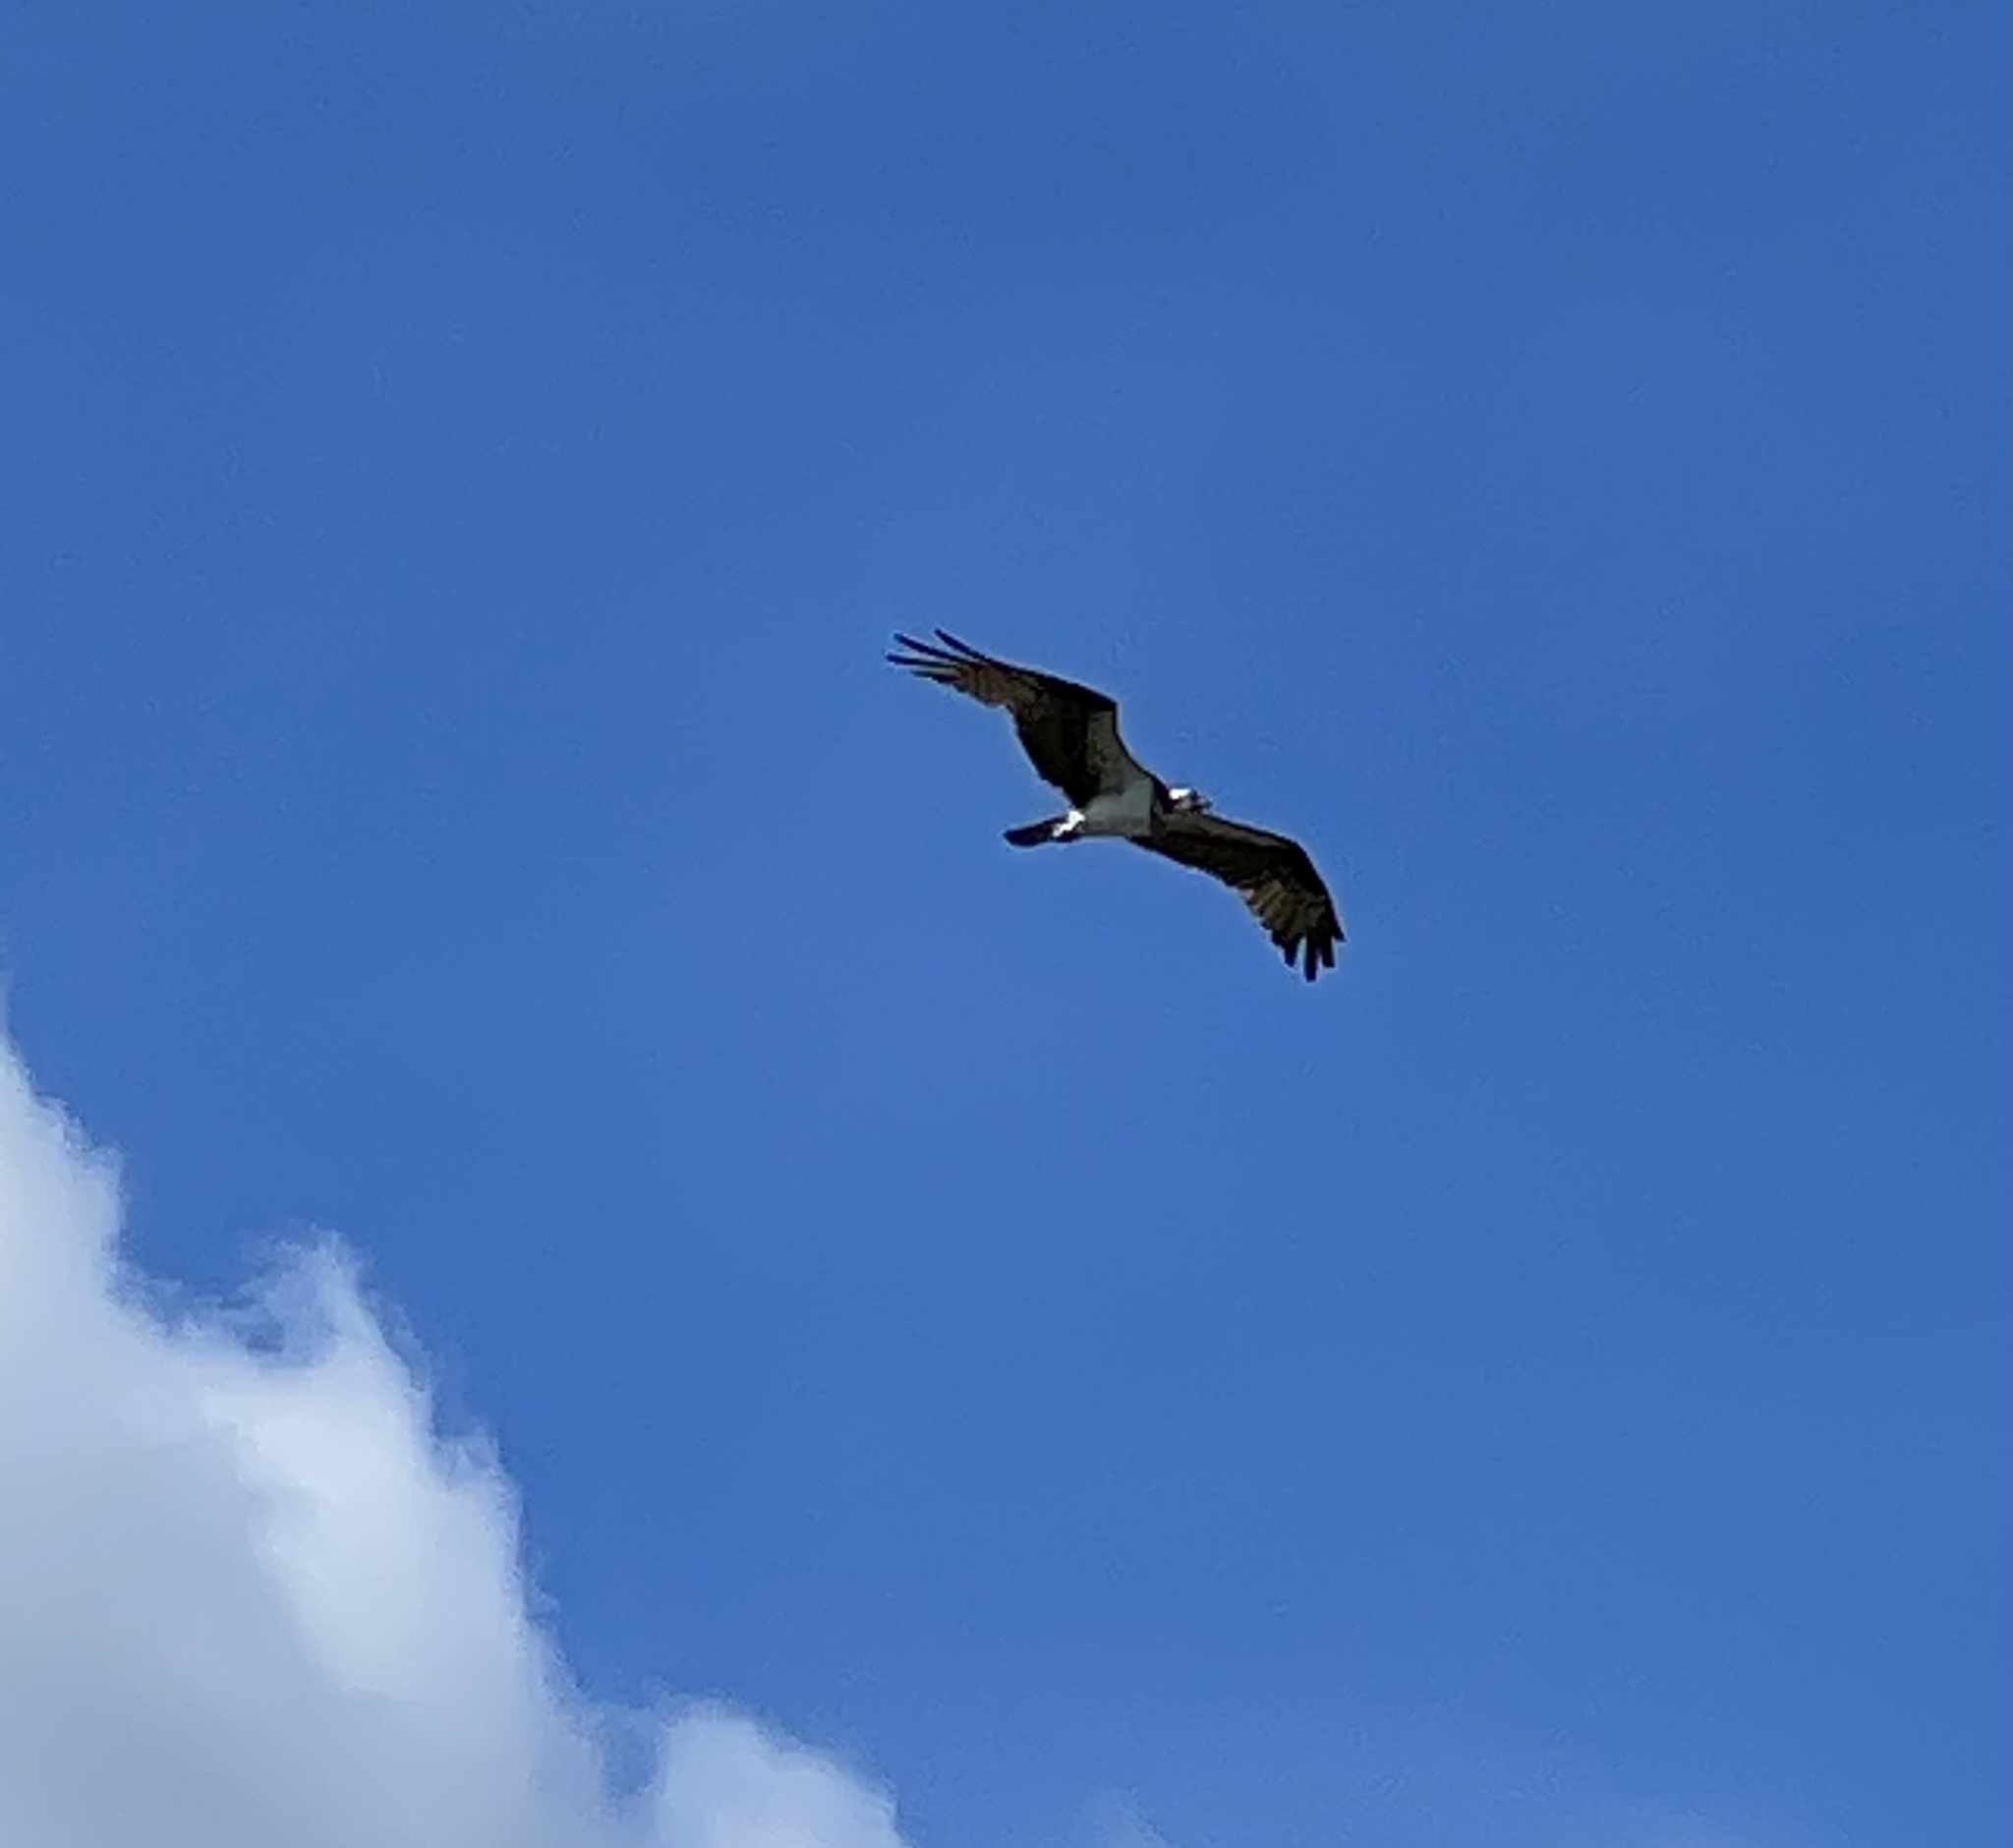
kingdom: Animalia
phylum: Chordata
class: Aves
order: Accipitriformes
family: Pandionidae
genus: Pandion
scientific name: Pandion haliaetus
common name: Osprey
